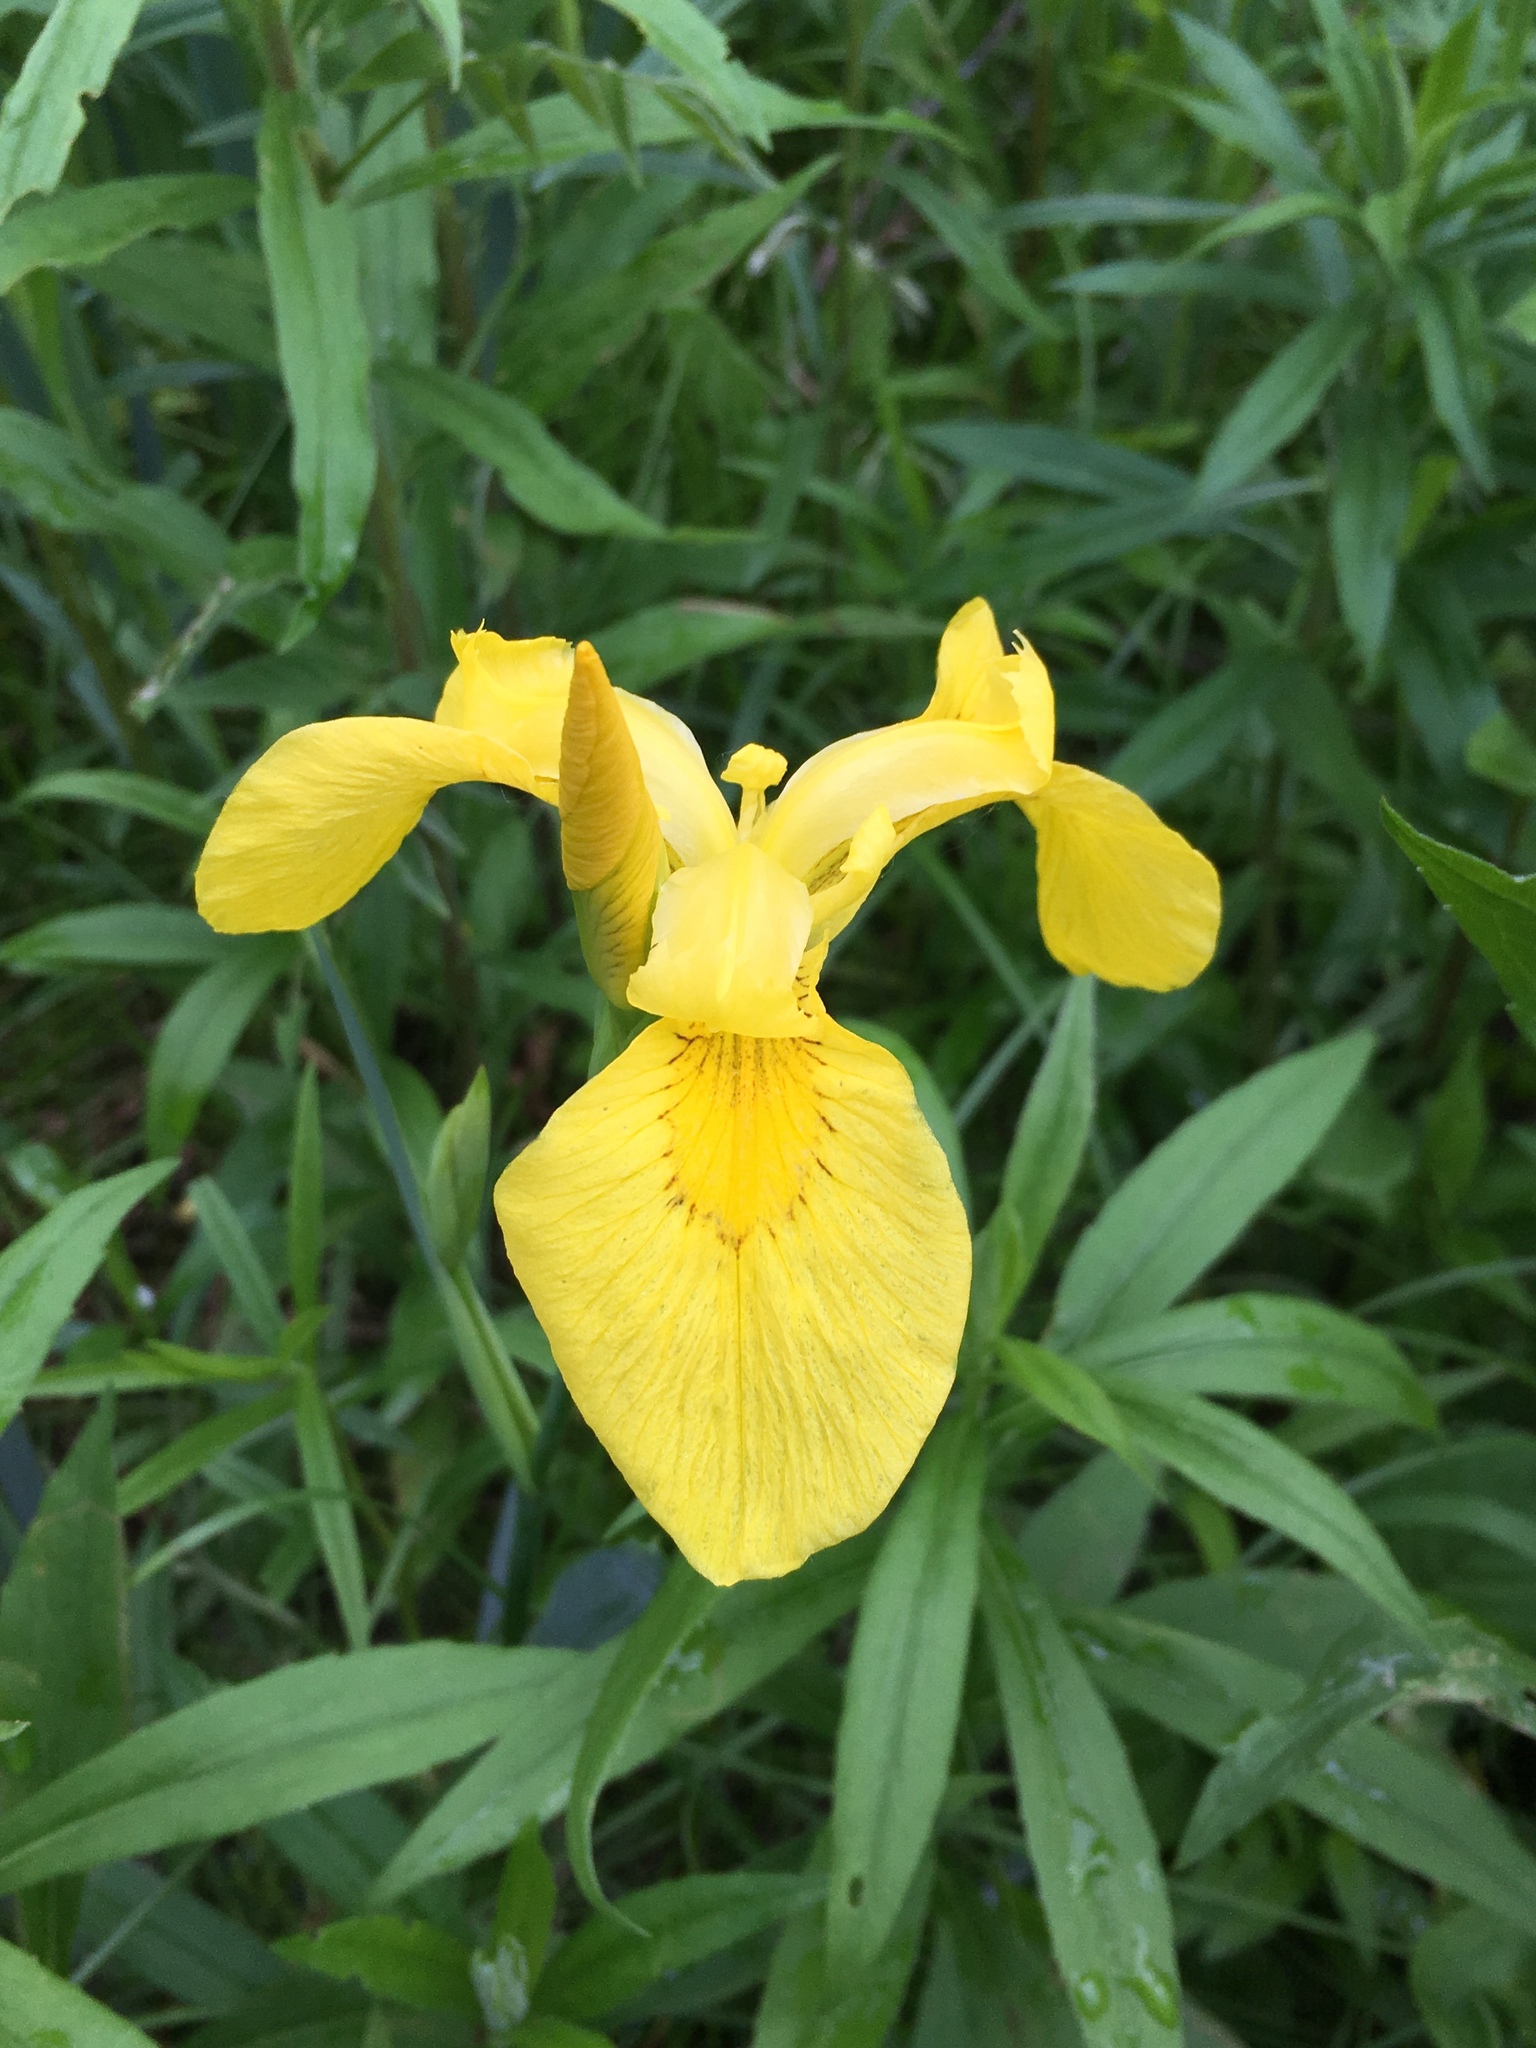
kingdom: Plantae
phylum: Tracheophyta
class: Liliopsida
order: Asparagales
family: Iridaceae
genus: Iris
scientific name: Iris pseudacorus
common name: Yellow flag
